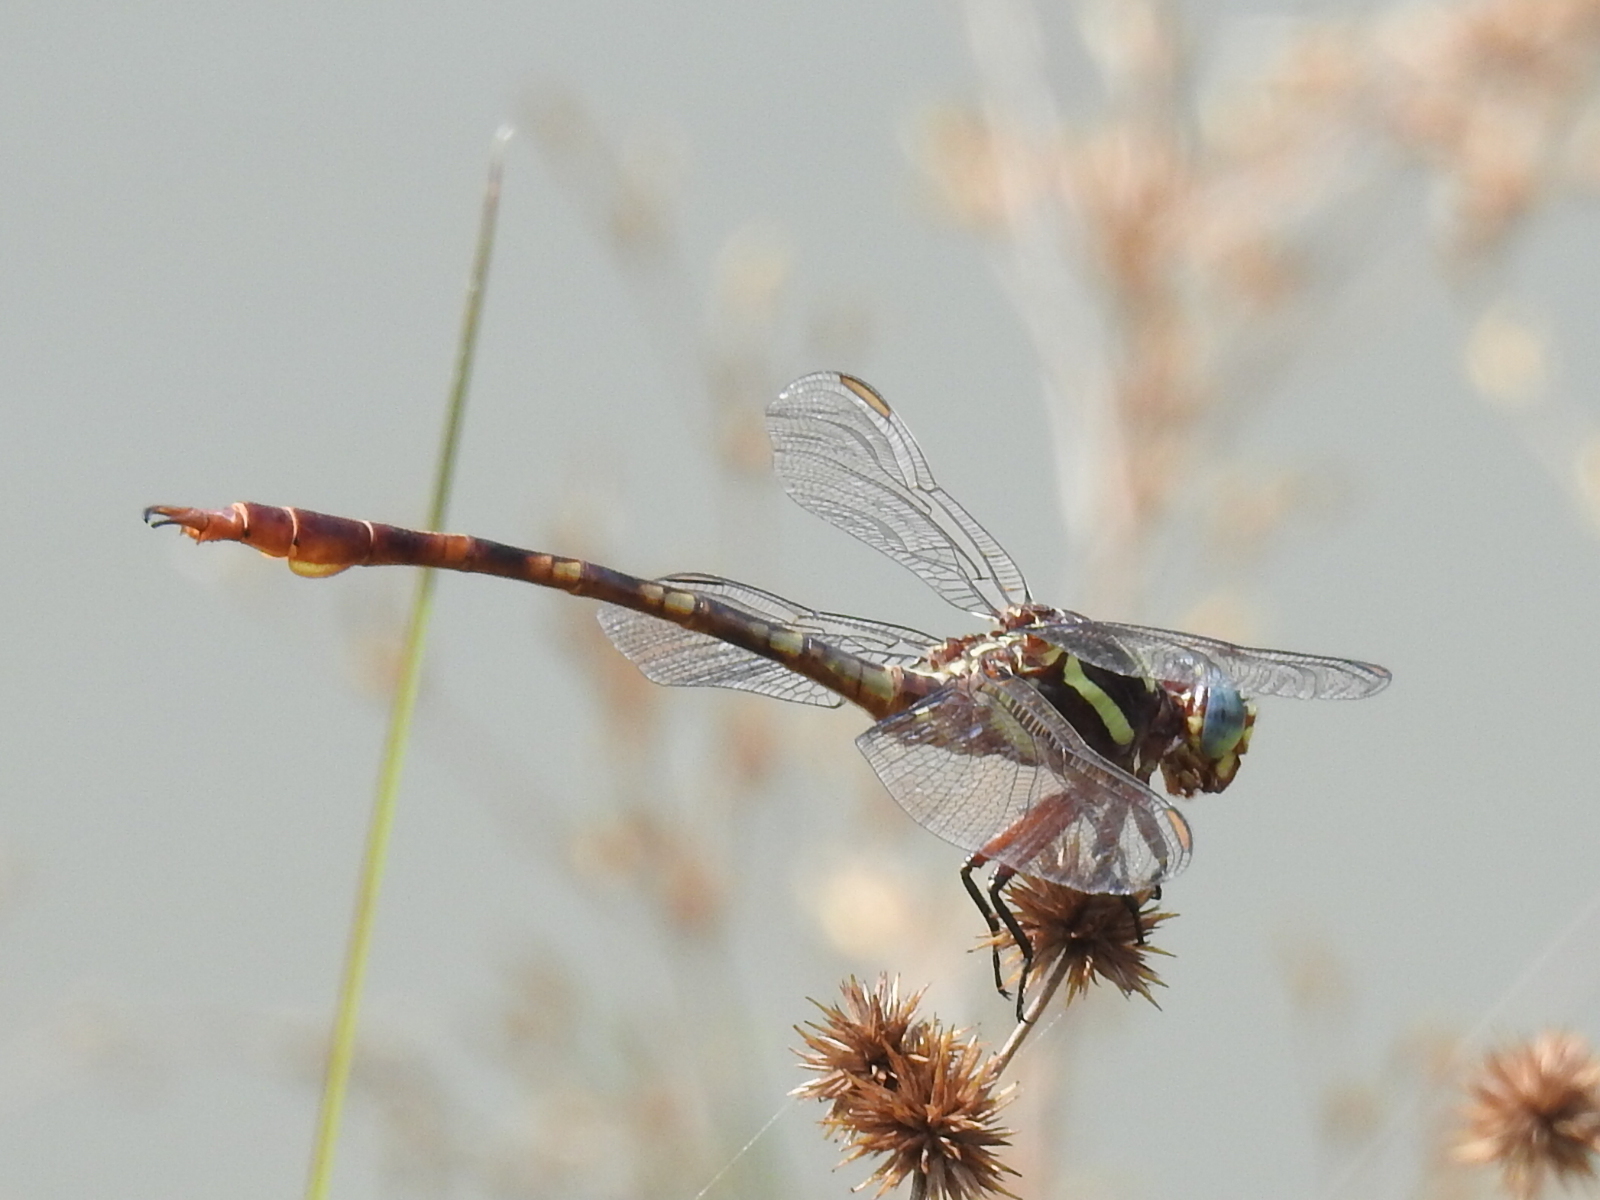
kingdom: Animalia
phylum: Arthropoda
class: Insecta
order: Odonata
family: Gomphidae
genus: Aphylla
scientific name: Aphylla williamsoni
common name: Two-striped forceptail
